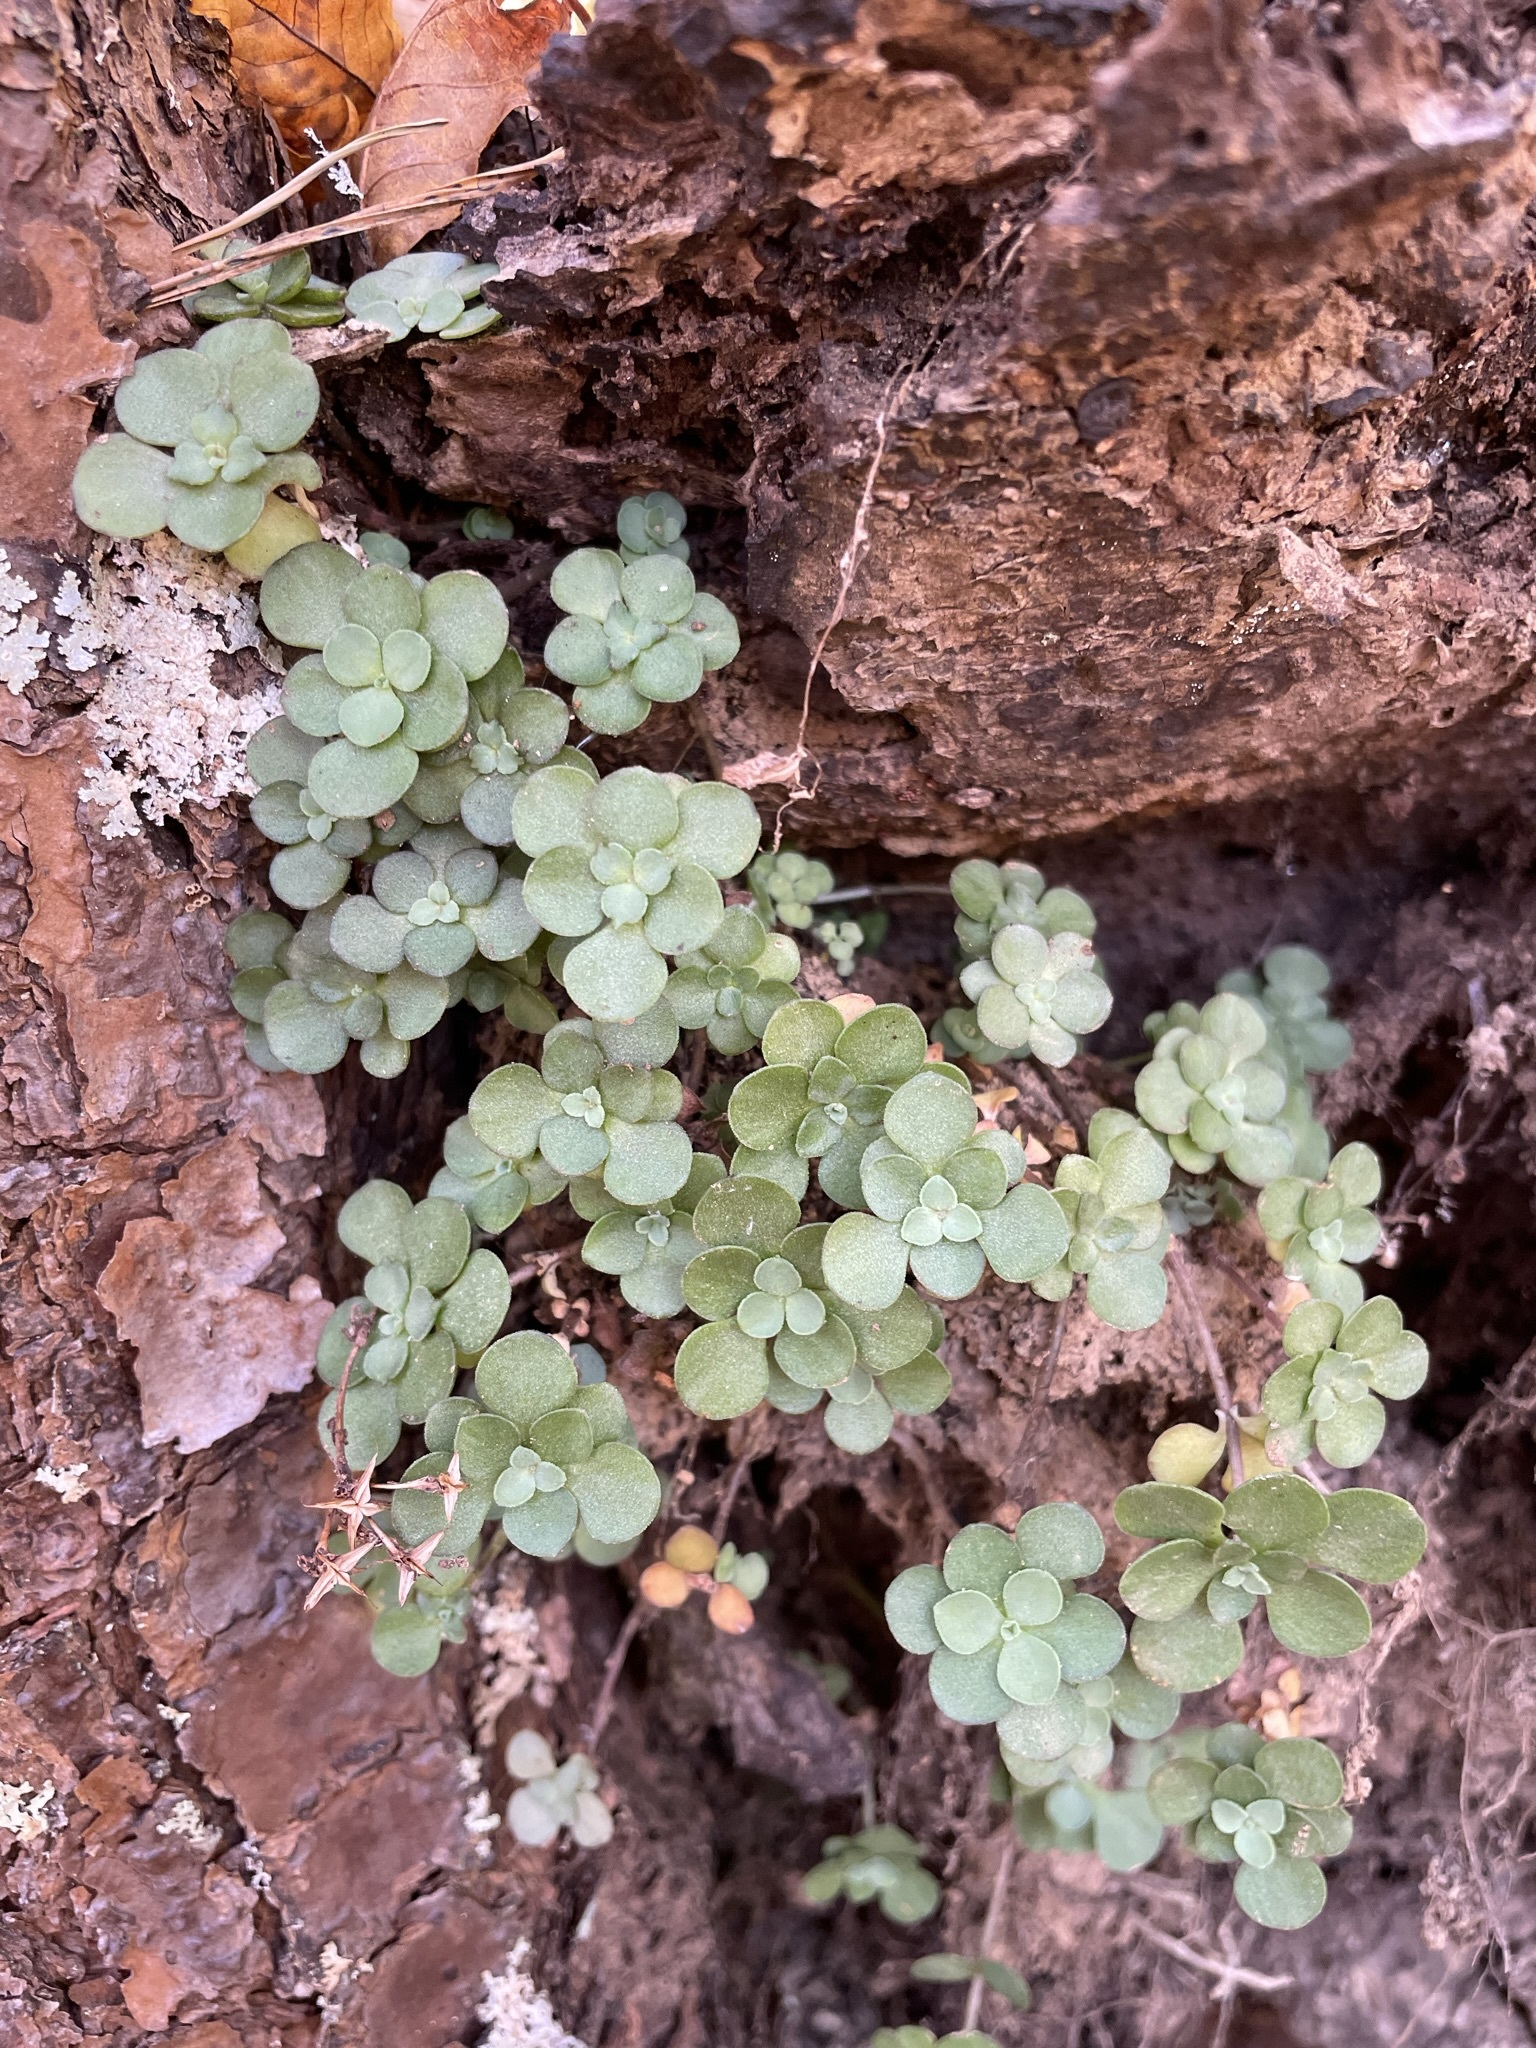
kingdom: Plantae
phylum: Tracheophyta
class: Magnoliopsida
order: Saxifragales
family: Crassulaceae
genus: Sedum
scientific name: Sedum ternatum
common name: Wild stonecrop
